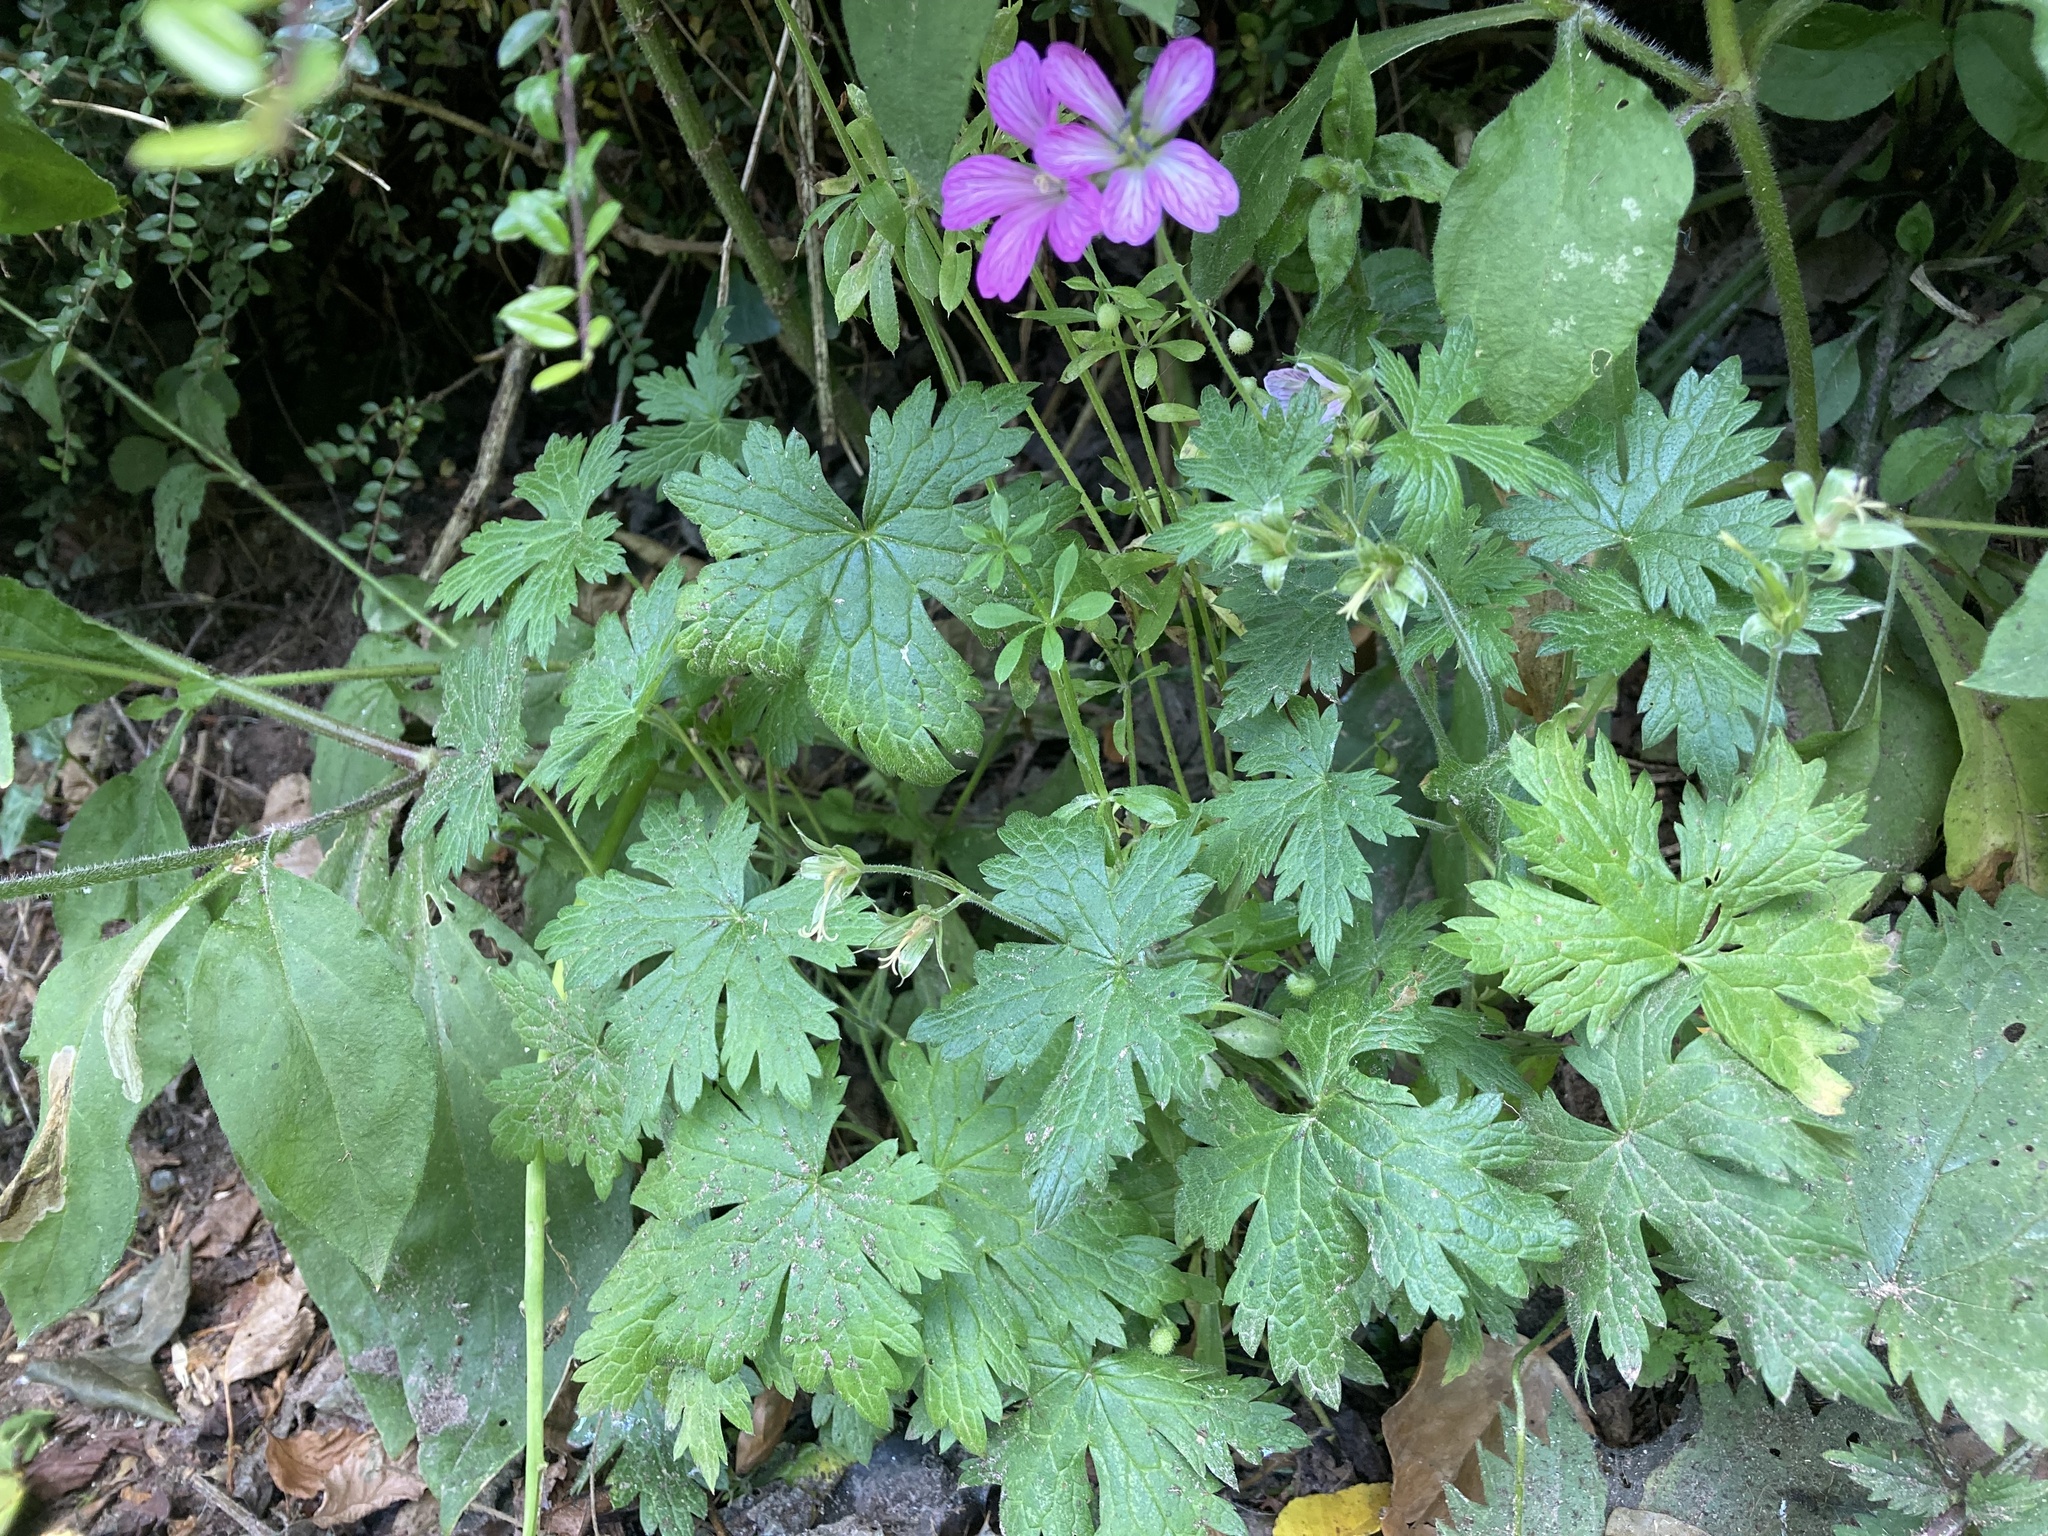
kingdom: Plantae
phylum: Tracheophyta
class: Magnoliopsida
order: Geraniales
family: Geraniaceae
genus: Geranium
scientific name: Geranium oxonianum
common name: Druce's crane's-bill
